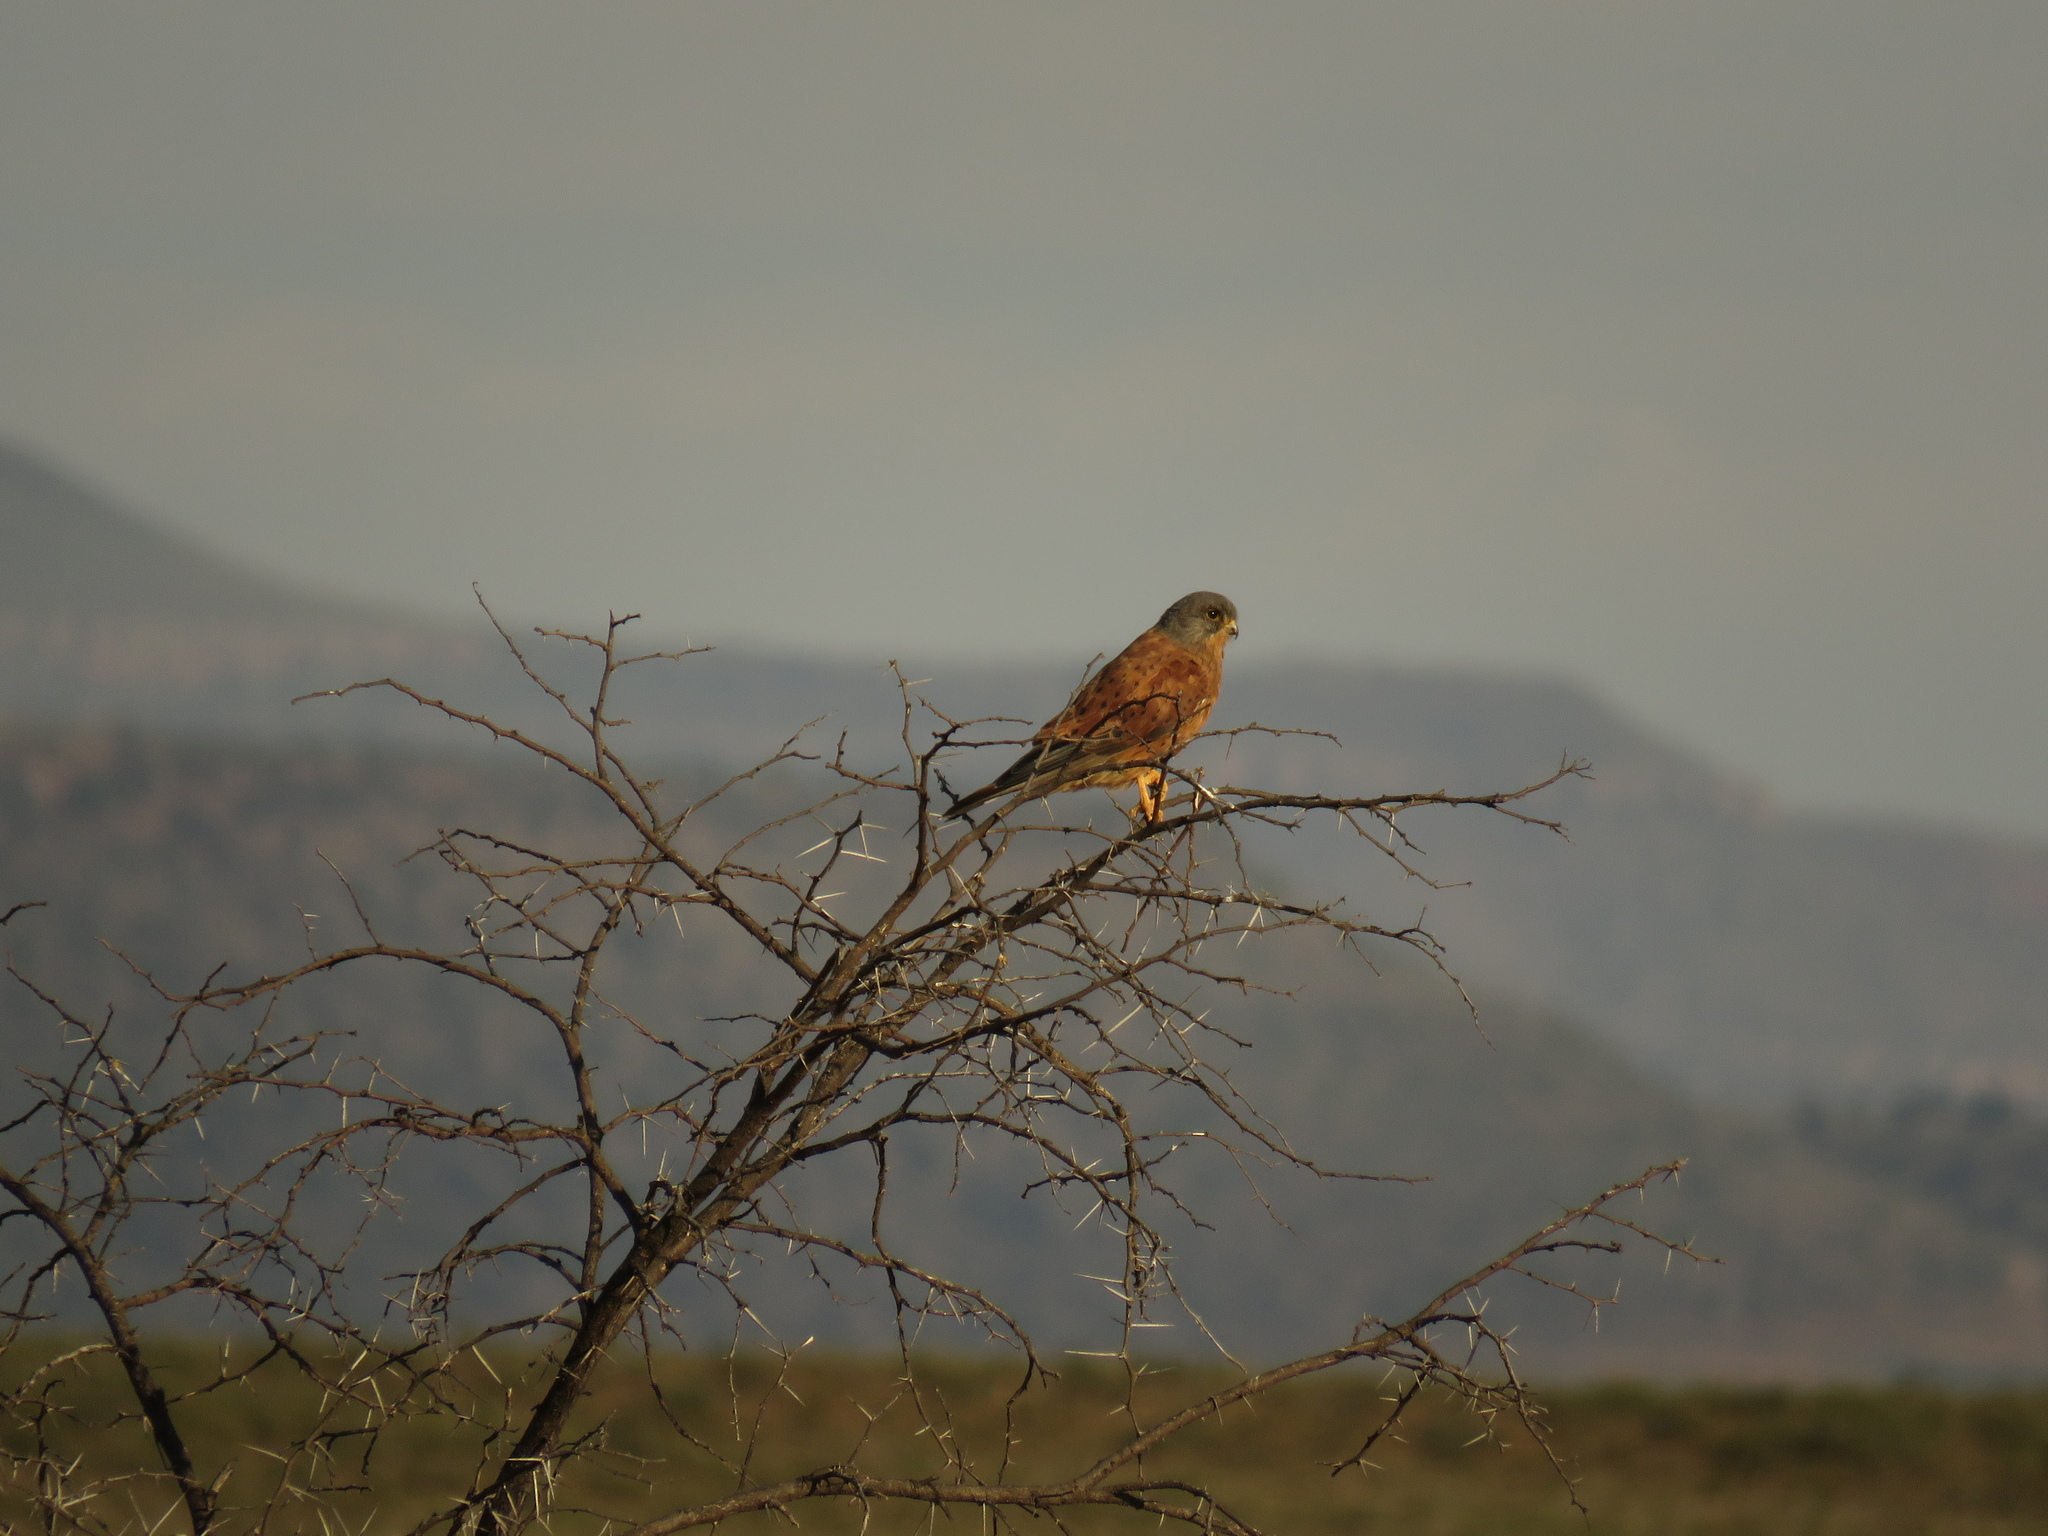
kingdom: Animalia
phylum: Chordata
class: Aves
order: Falconiformes
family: Falconidae
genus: Falco
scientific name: Falco rupicolus
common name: Rock kestrel
